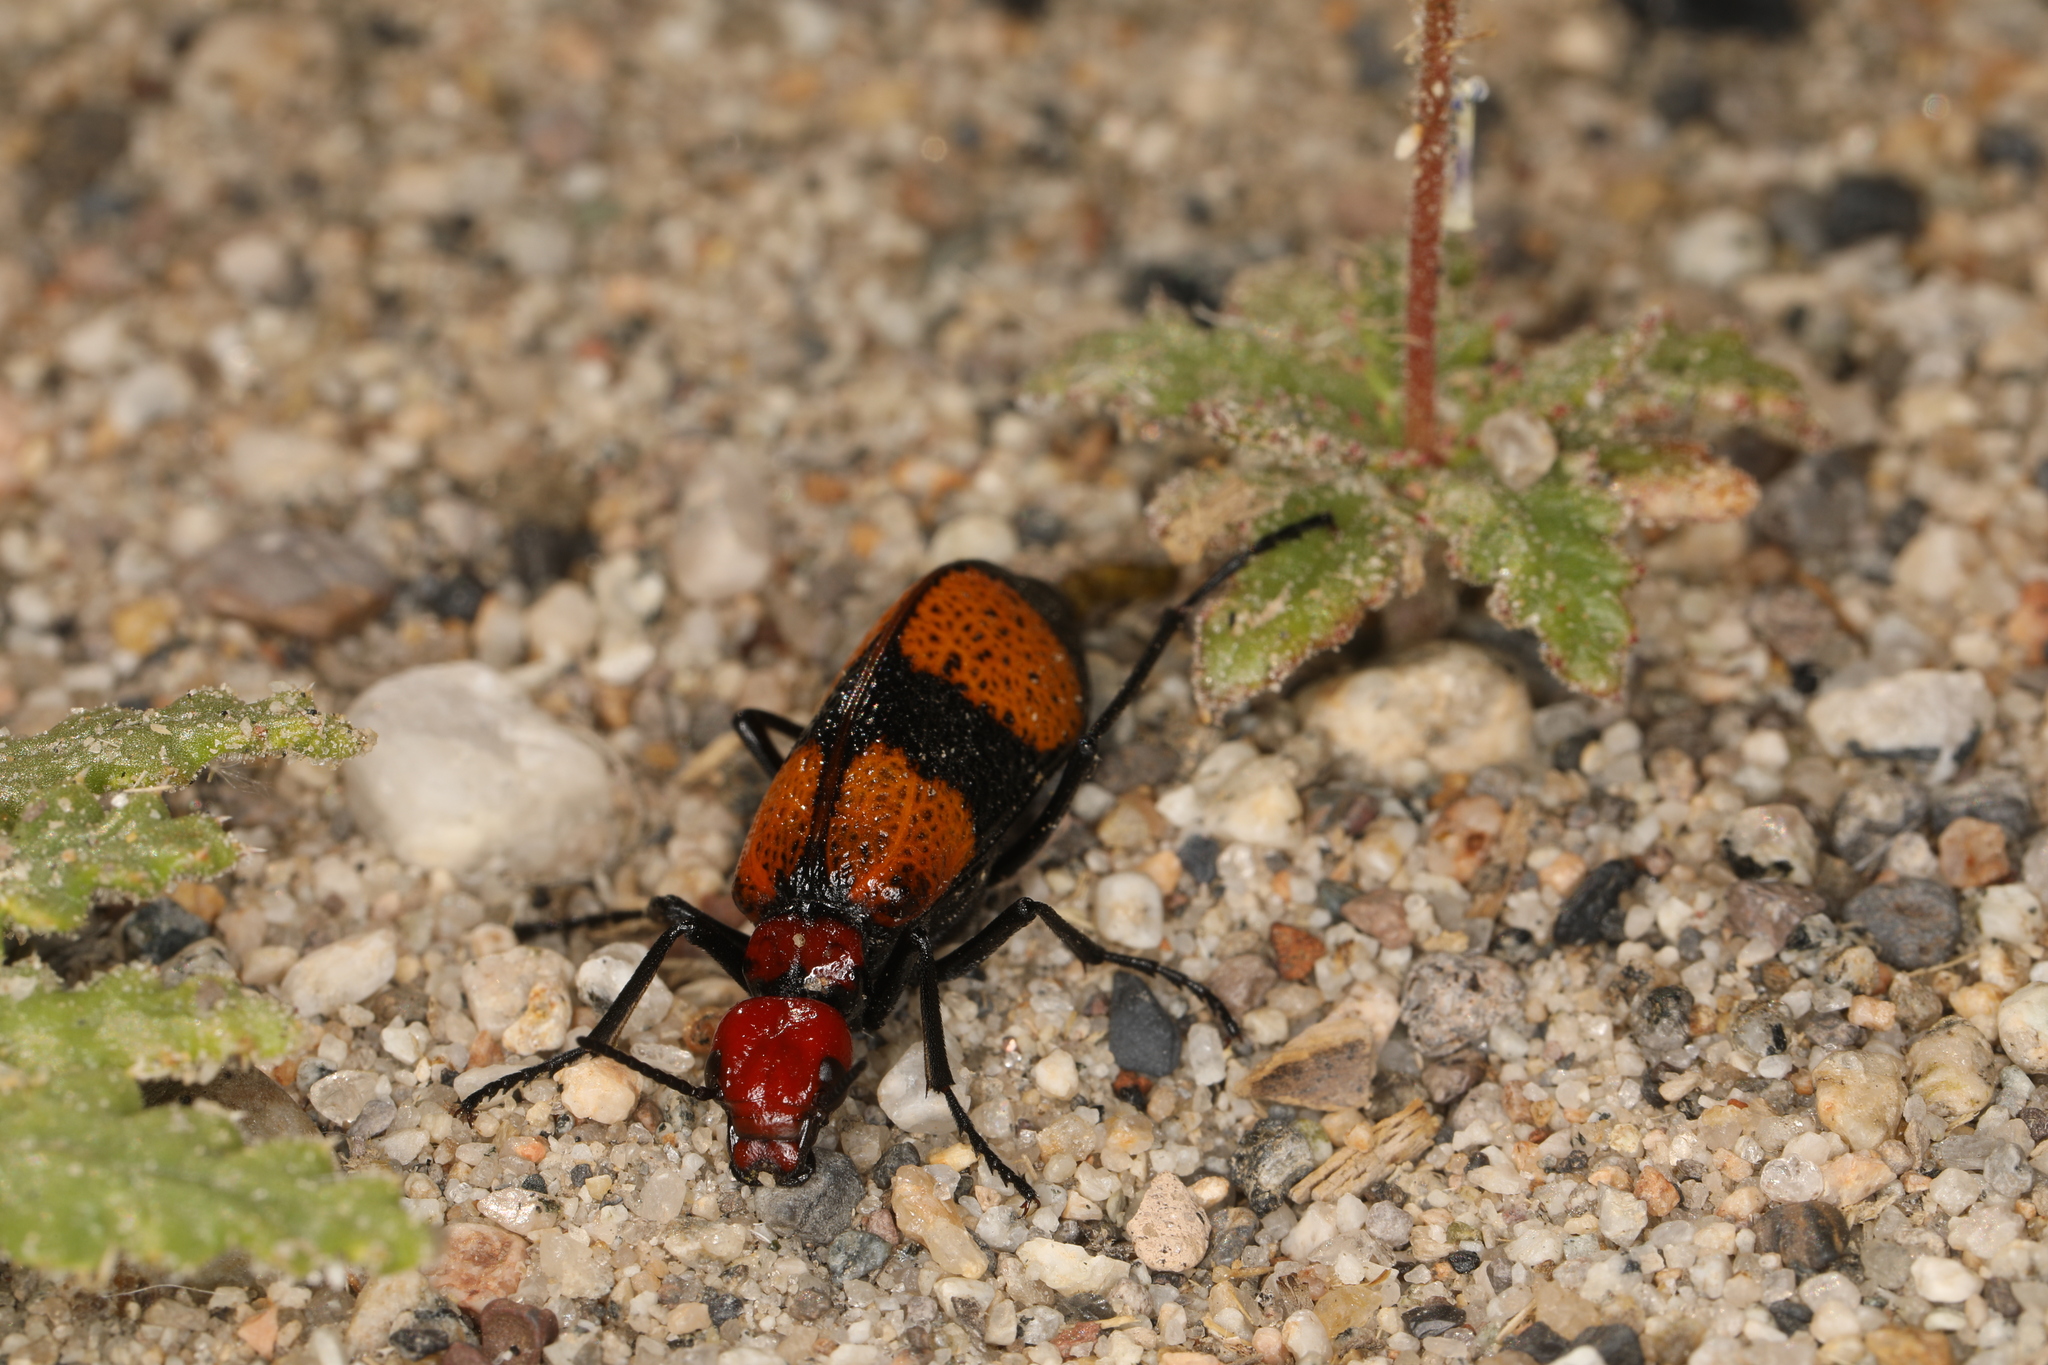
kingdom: Animalia
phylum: Arthropoda
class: Insecta
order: Coleoptera
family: Meloidae
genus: Tegrodera
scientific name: Tegrodera latecincta
